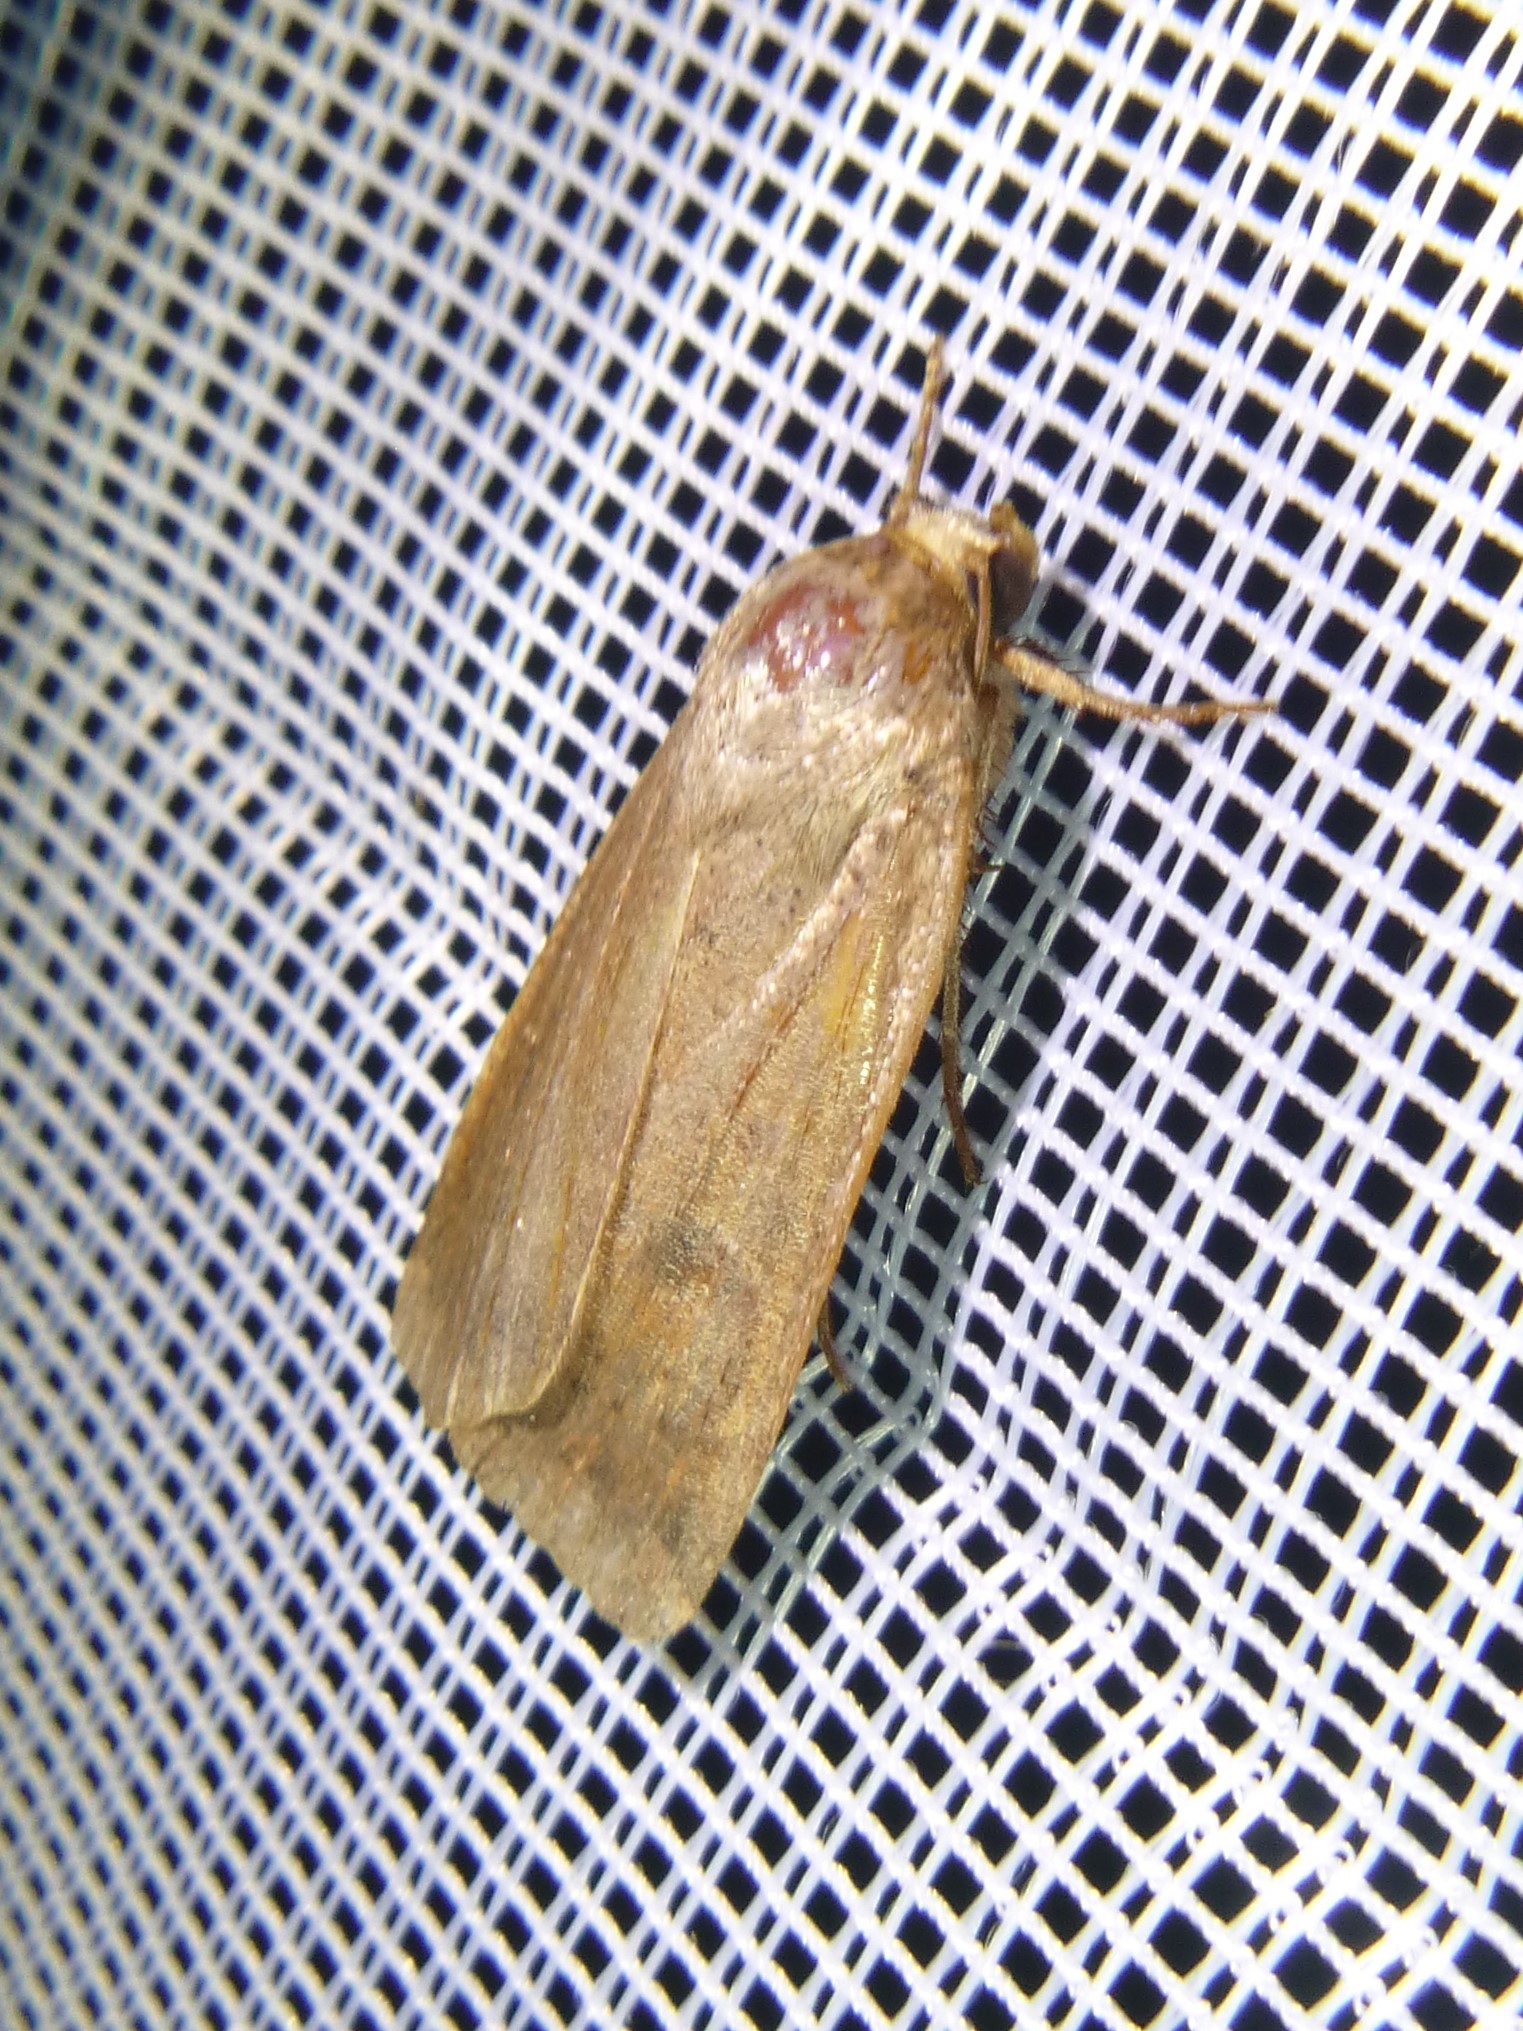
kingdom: Animalia
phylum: Arthropoda
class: Insecta
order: Lepidoptera
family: Noctuidae
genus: Noctua
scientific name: Noctua comes
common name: Lesser yellow underwing
